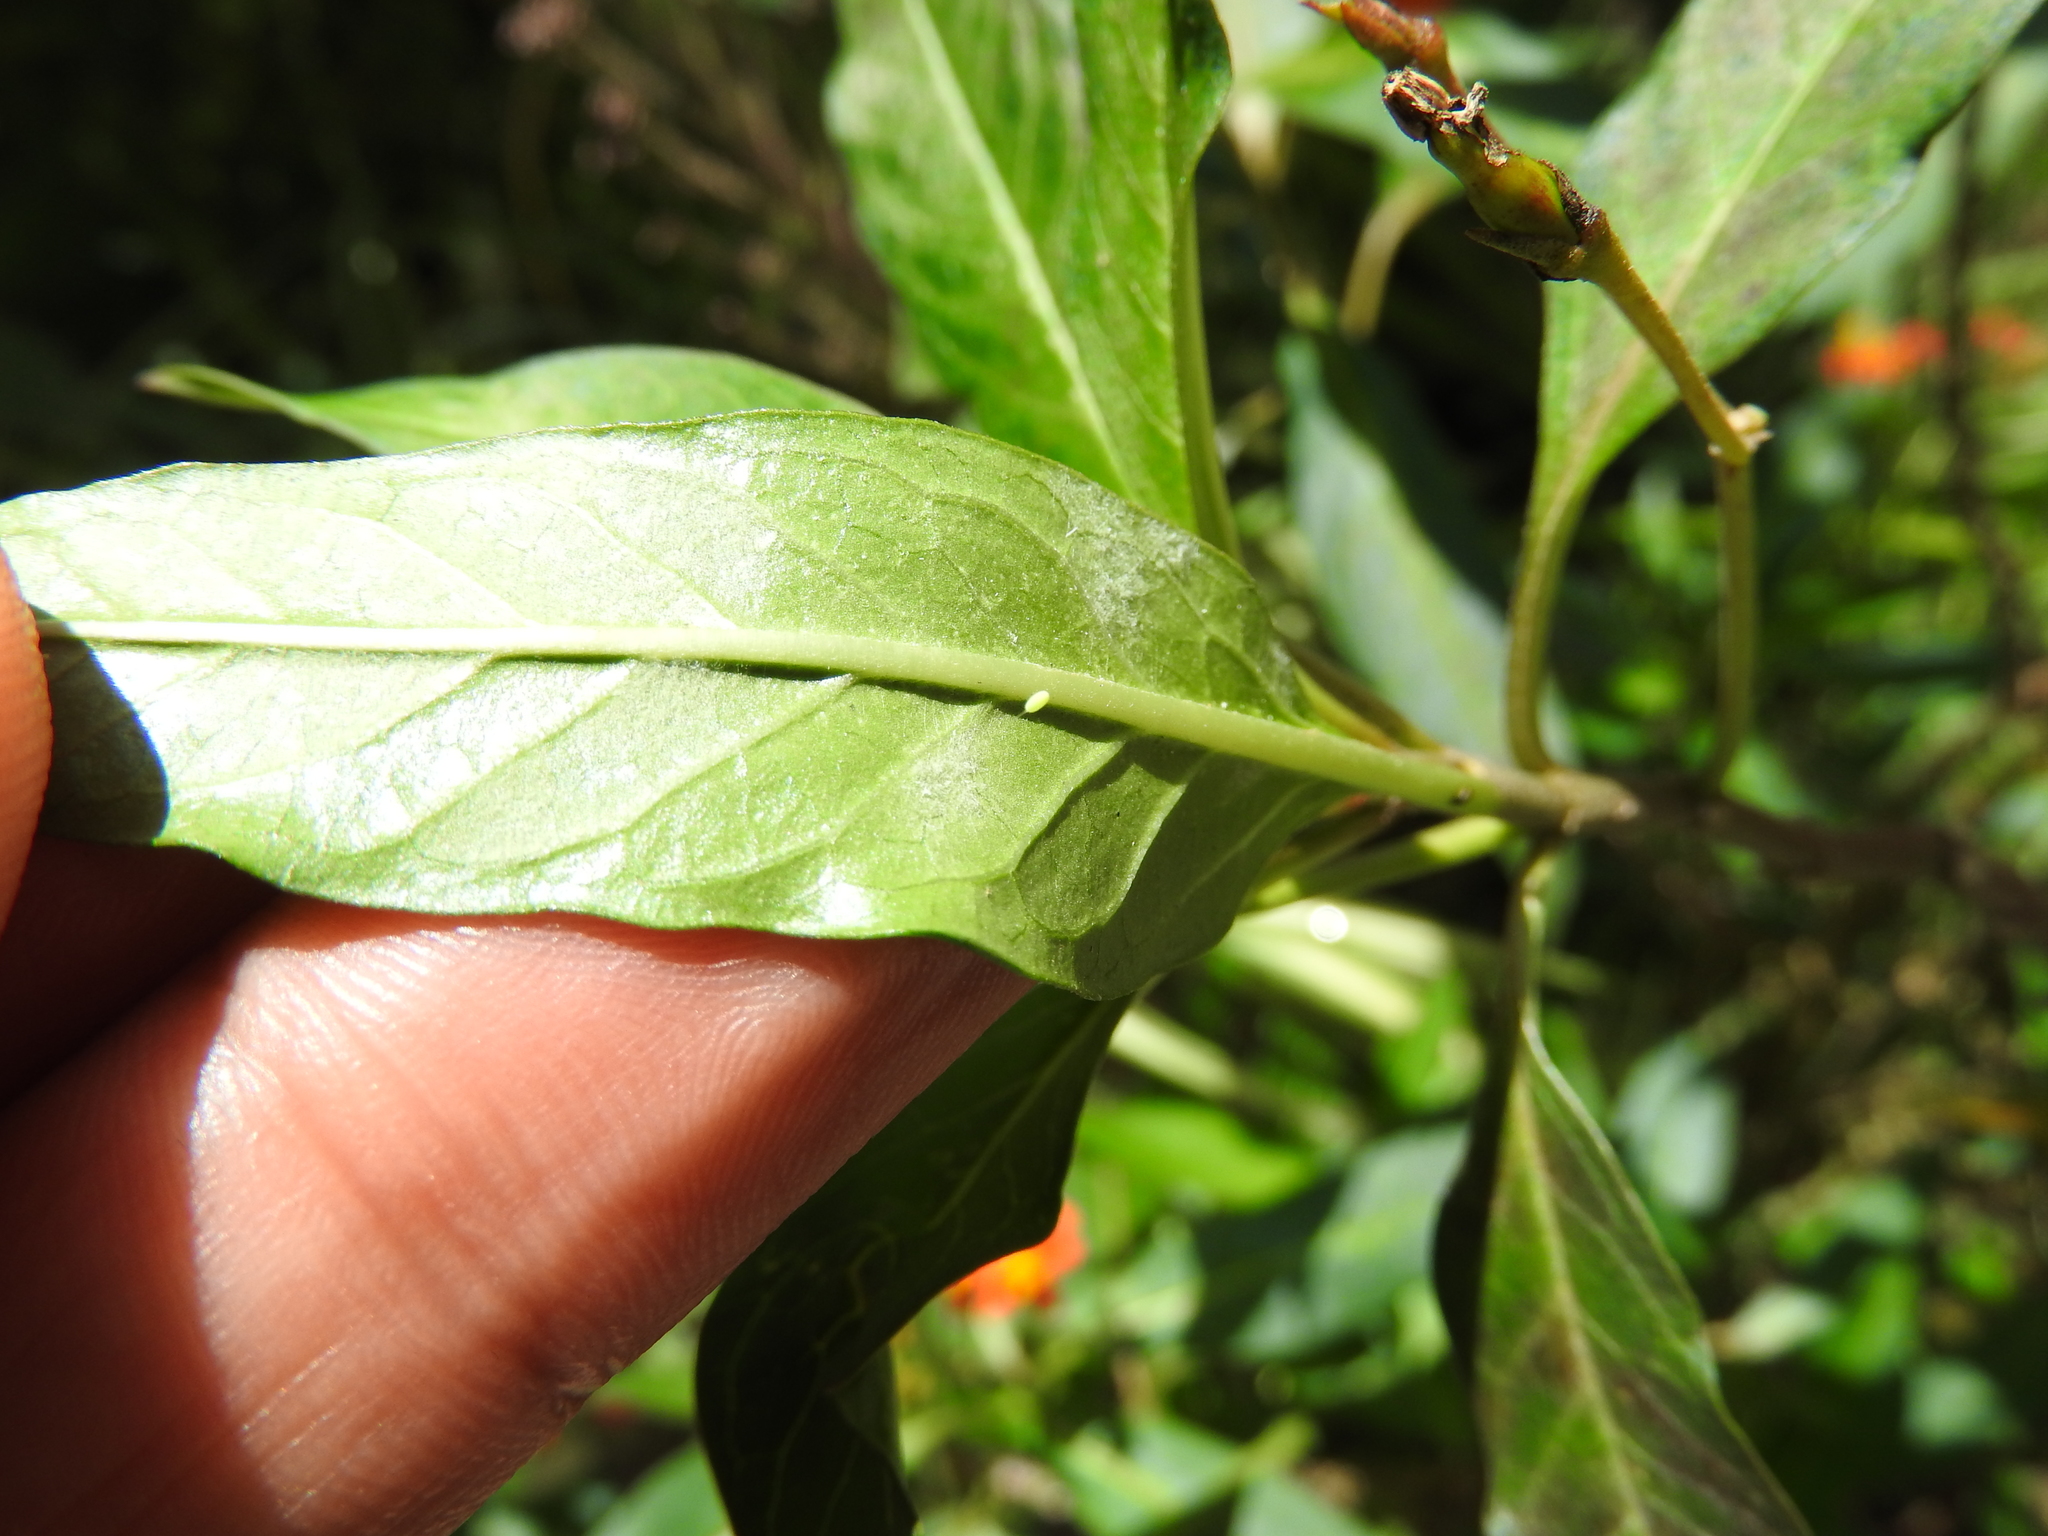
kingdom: Animalia
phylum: Arthropoda
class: Insecta
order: Lepidoptera
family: Nymphalidae
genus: Danaus
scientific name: Danaus plexippus
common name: Monarch
